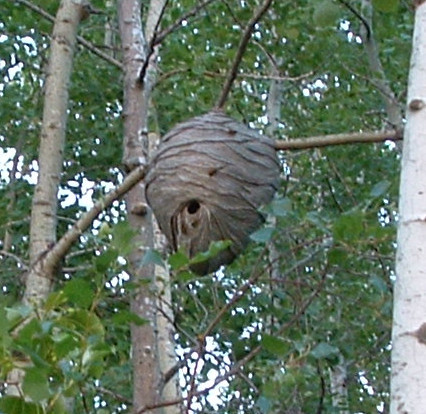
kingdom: Animalia
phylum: Arthropoda
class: Insecta
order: Hymenoptera
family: Vespidae
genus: Dolichovespula
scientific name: Dolichovespula
